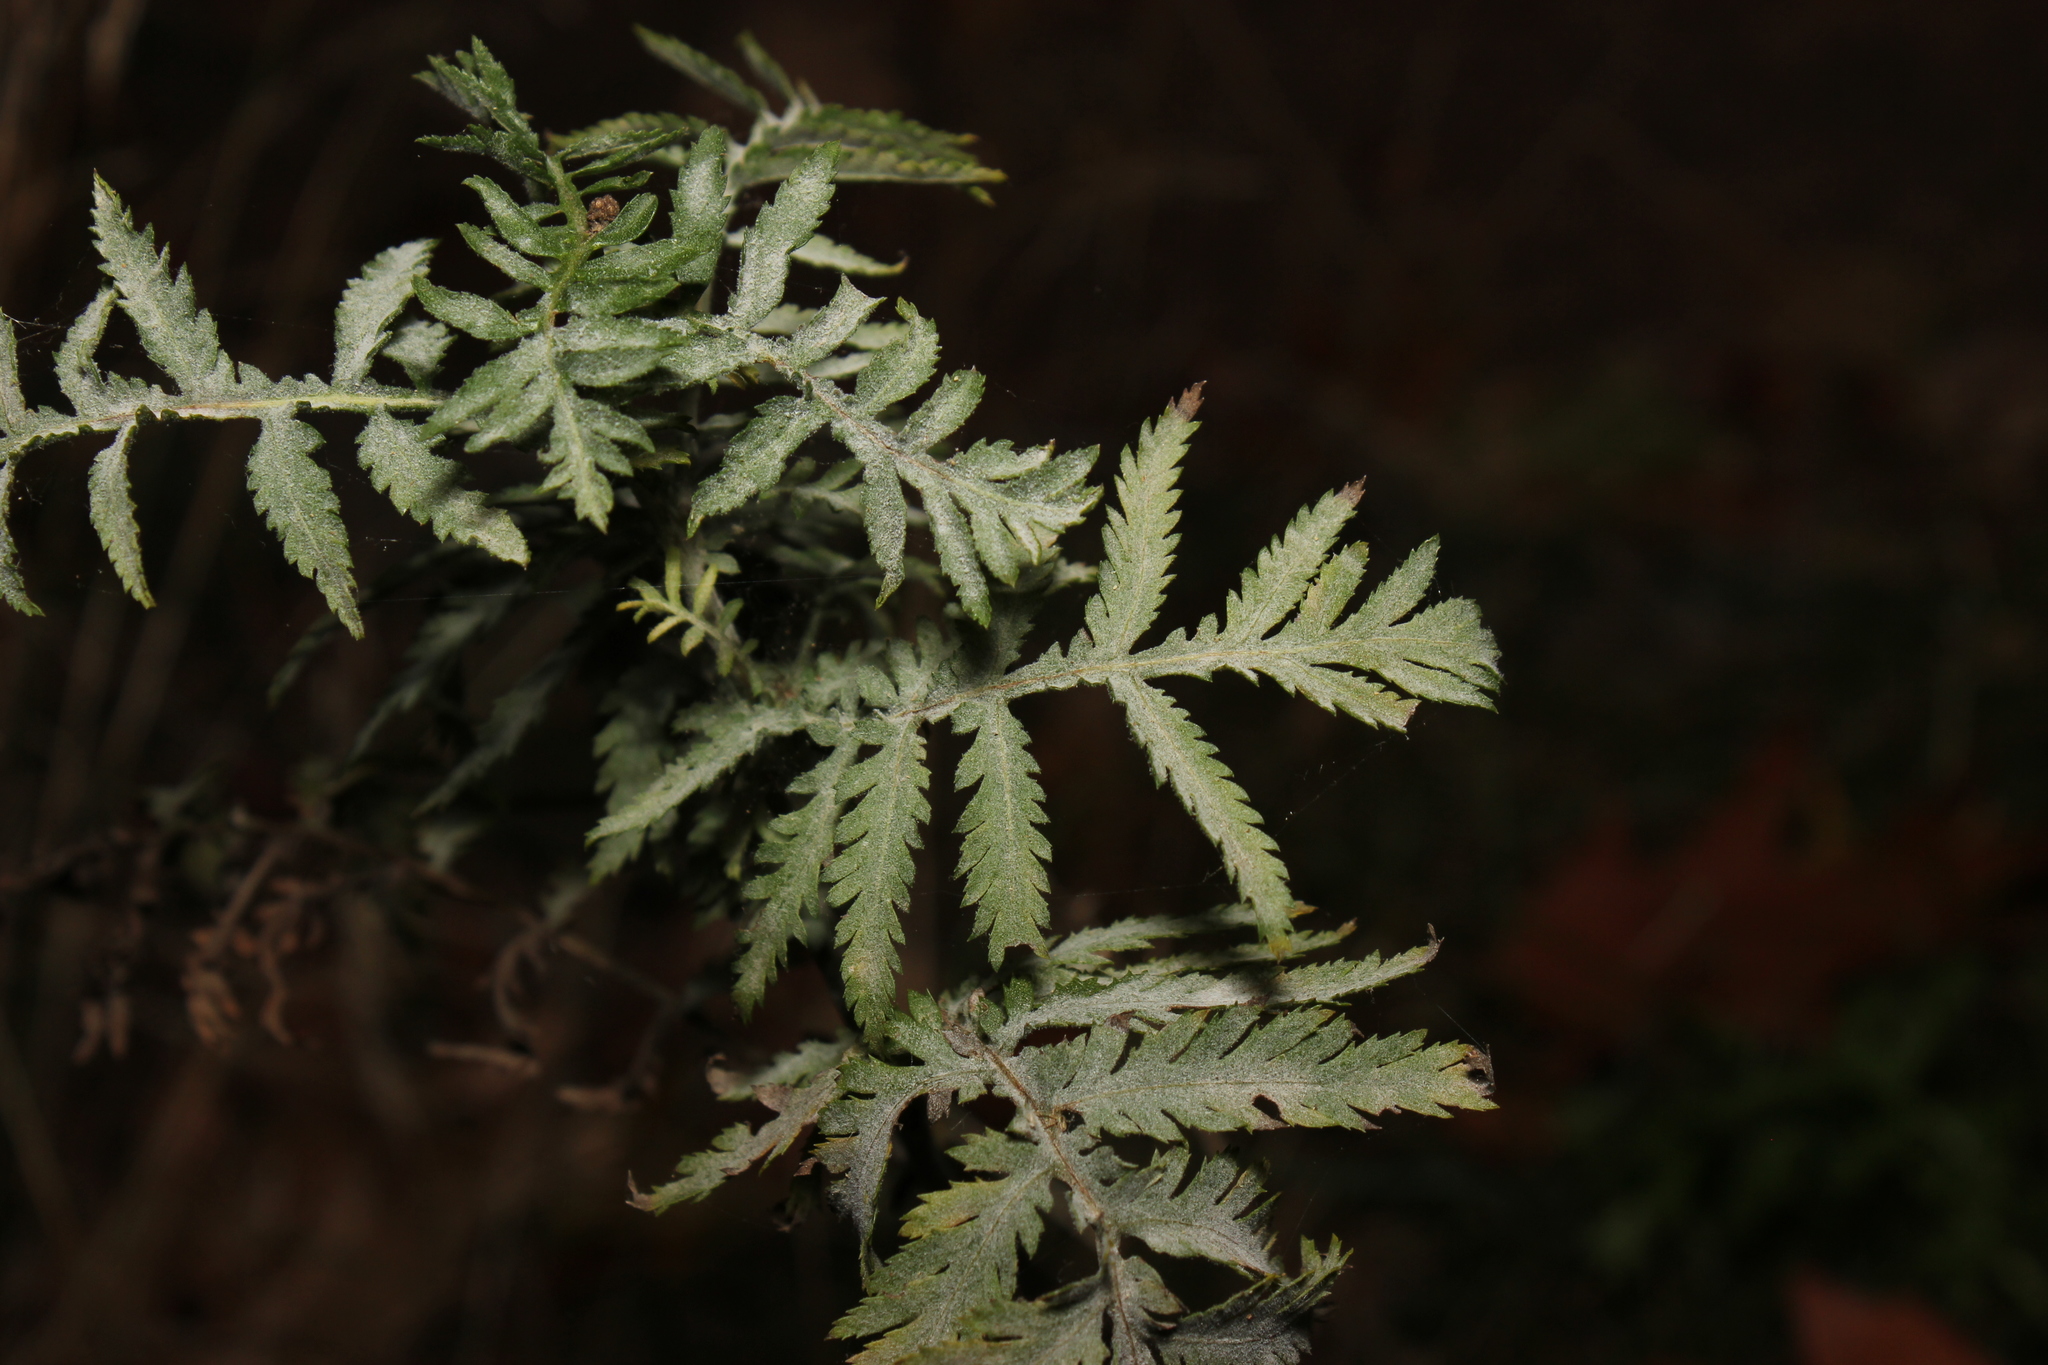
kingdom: Plantae
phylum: Tracheophyta
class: Magnoliopsida
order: Asterales
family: Asteraceae
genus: Tanacetum
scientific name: Tanacetum vulgare
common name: Common tansy
